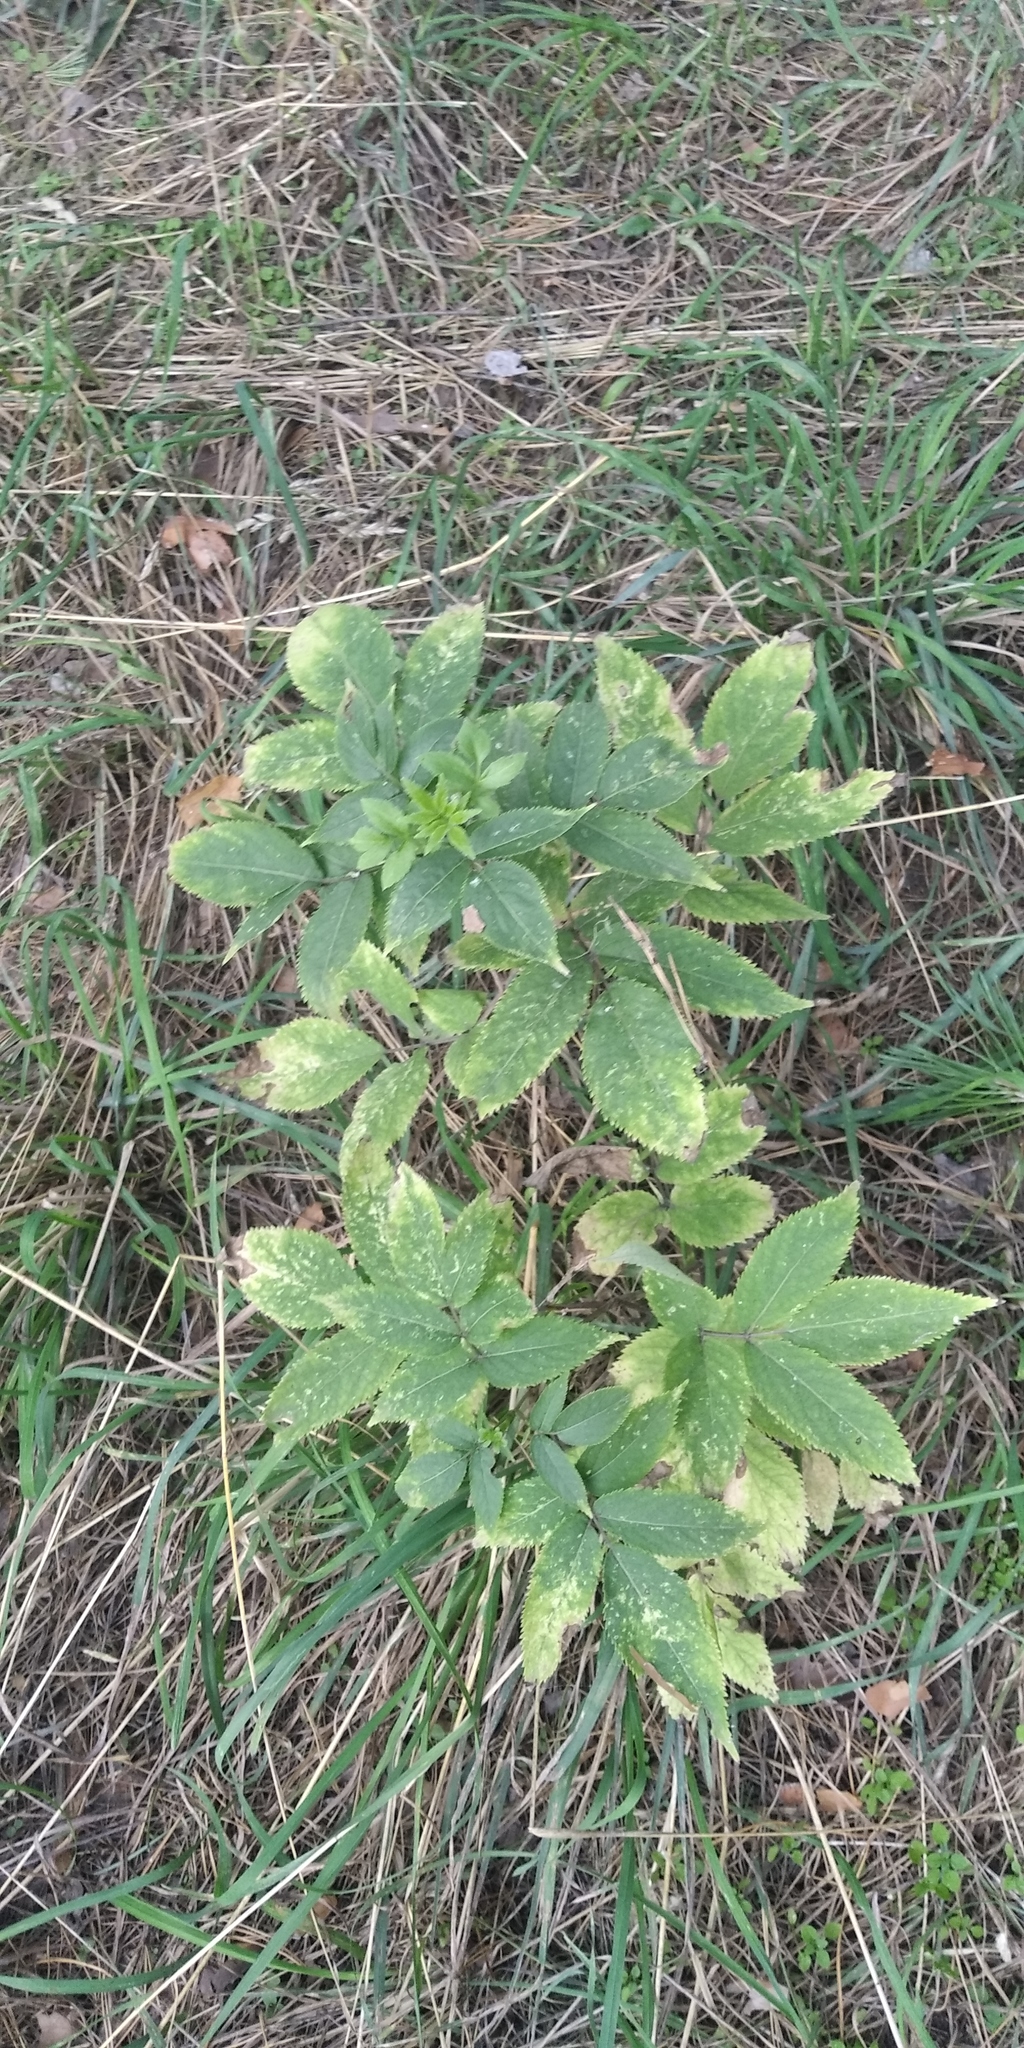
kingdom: Plantae
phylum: Tracheophyta
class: Magnoliopsida
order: Apiales
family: Apiaceae
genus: Chaerophyllum
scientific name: Chaerophyllum aromaticum
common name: Broadleaf chervil
